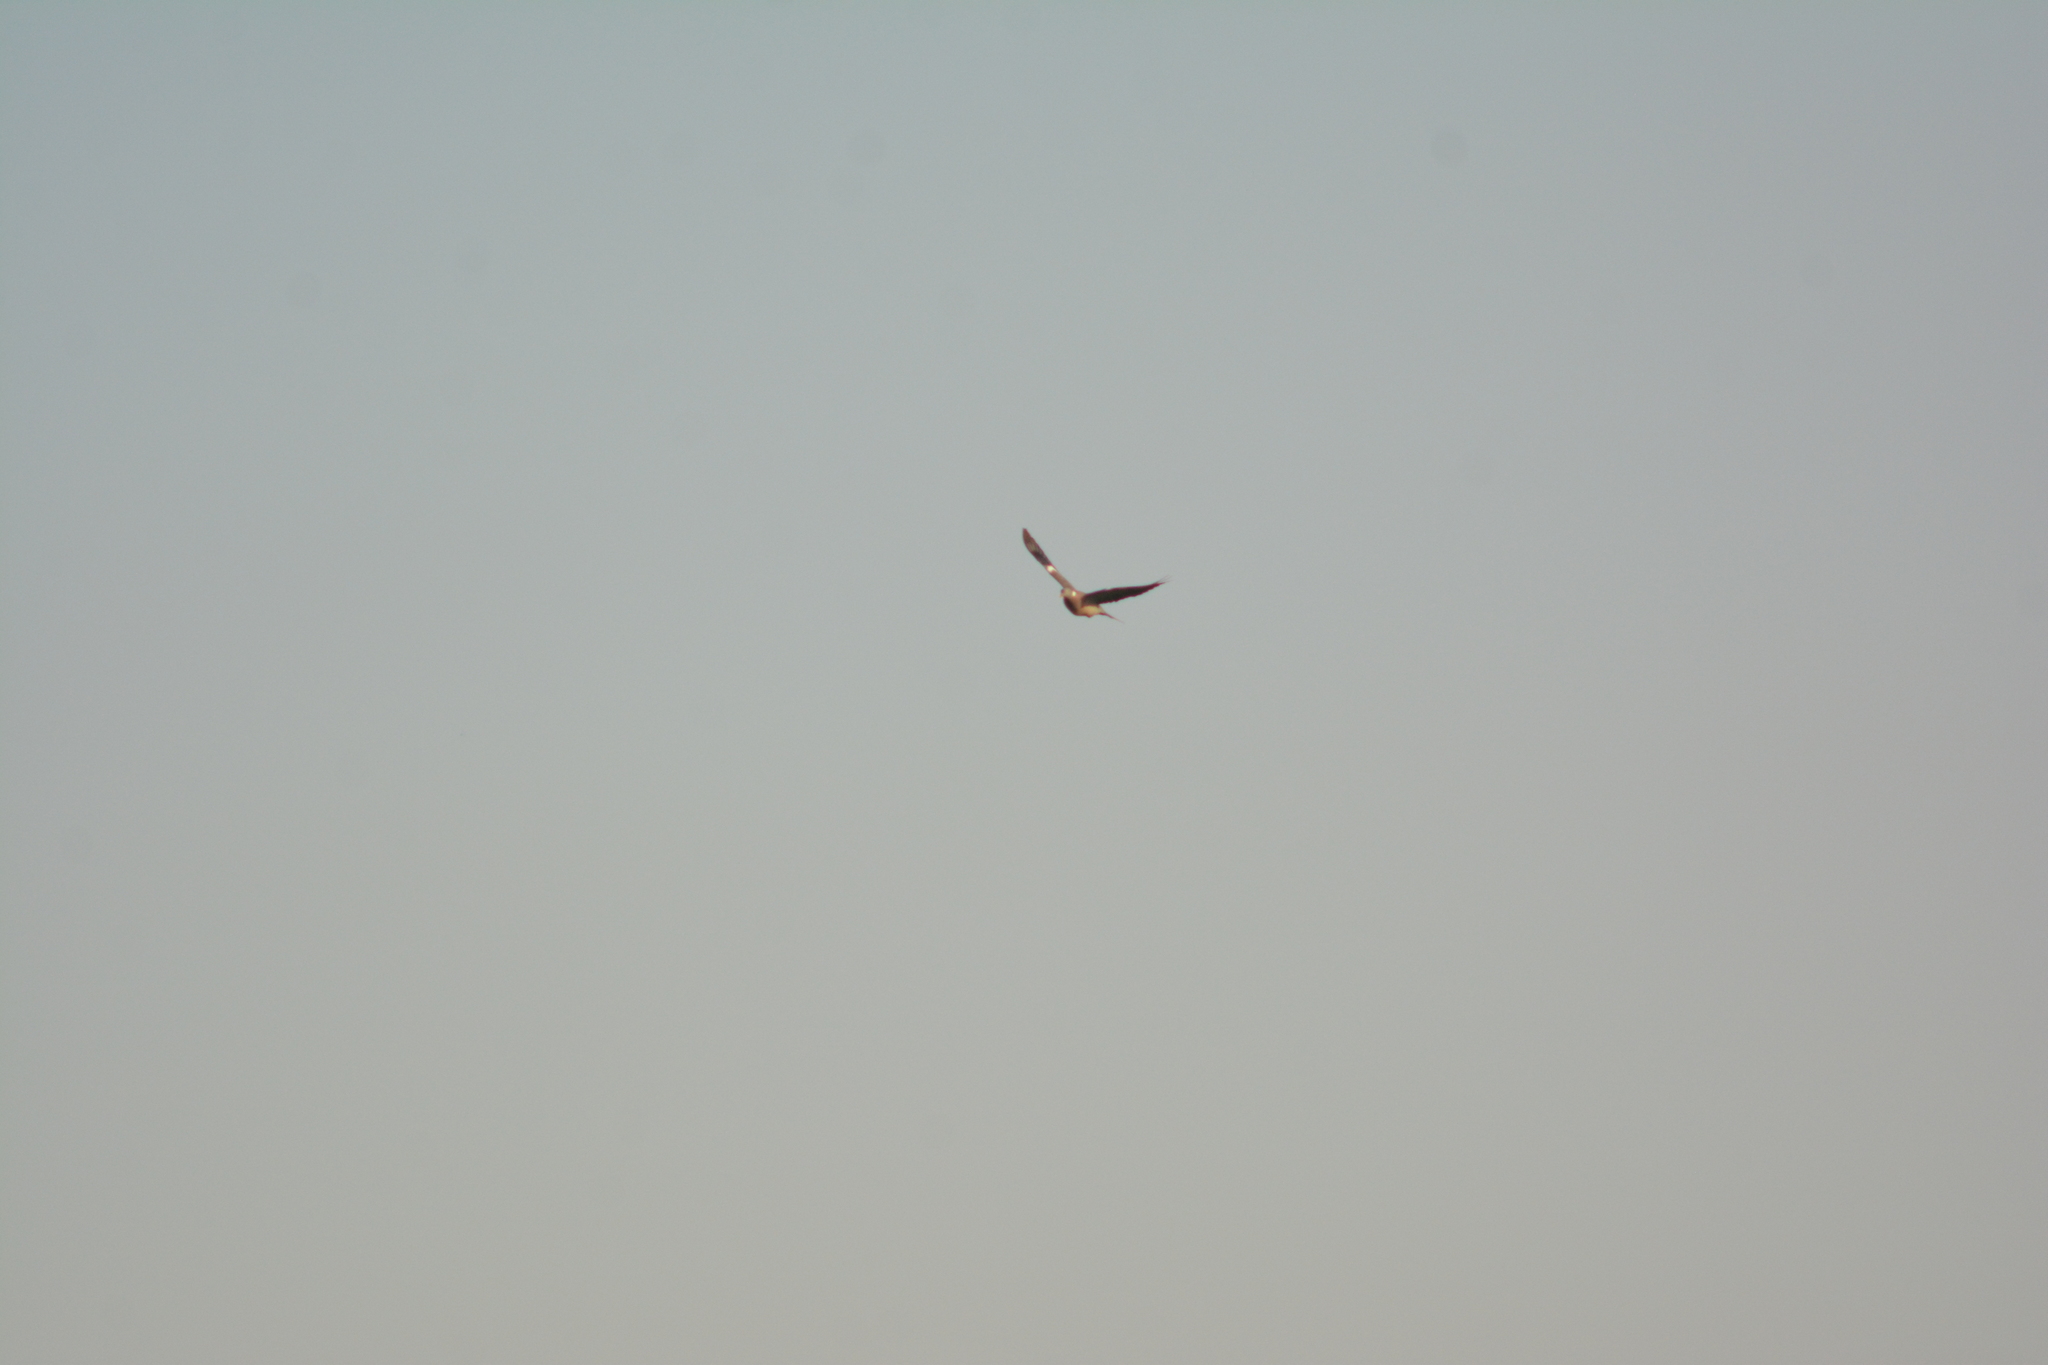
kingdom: Animalia
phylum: Chordata
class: Aves
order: Columbiformes
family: Columbidae
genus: Columba
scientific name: Columba palumbus
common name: Common wood pigeon
